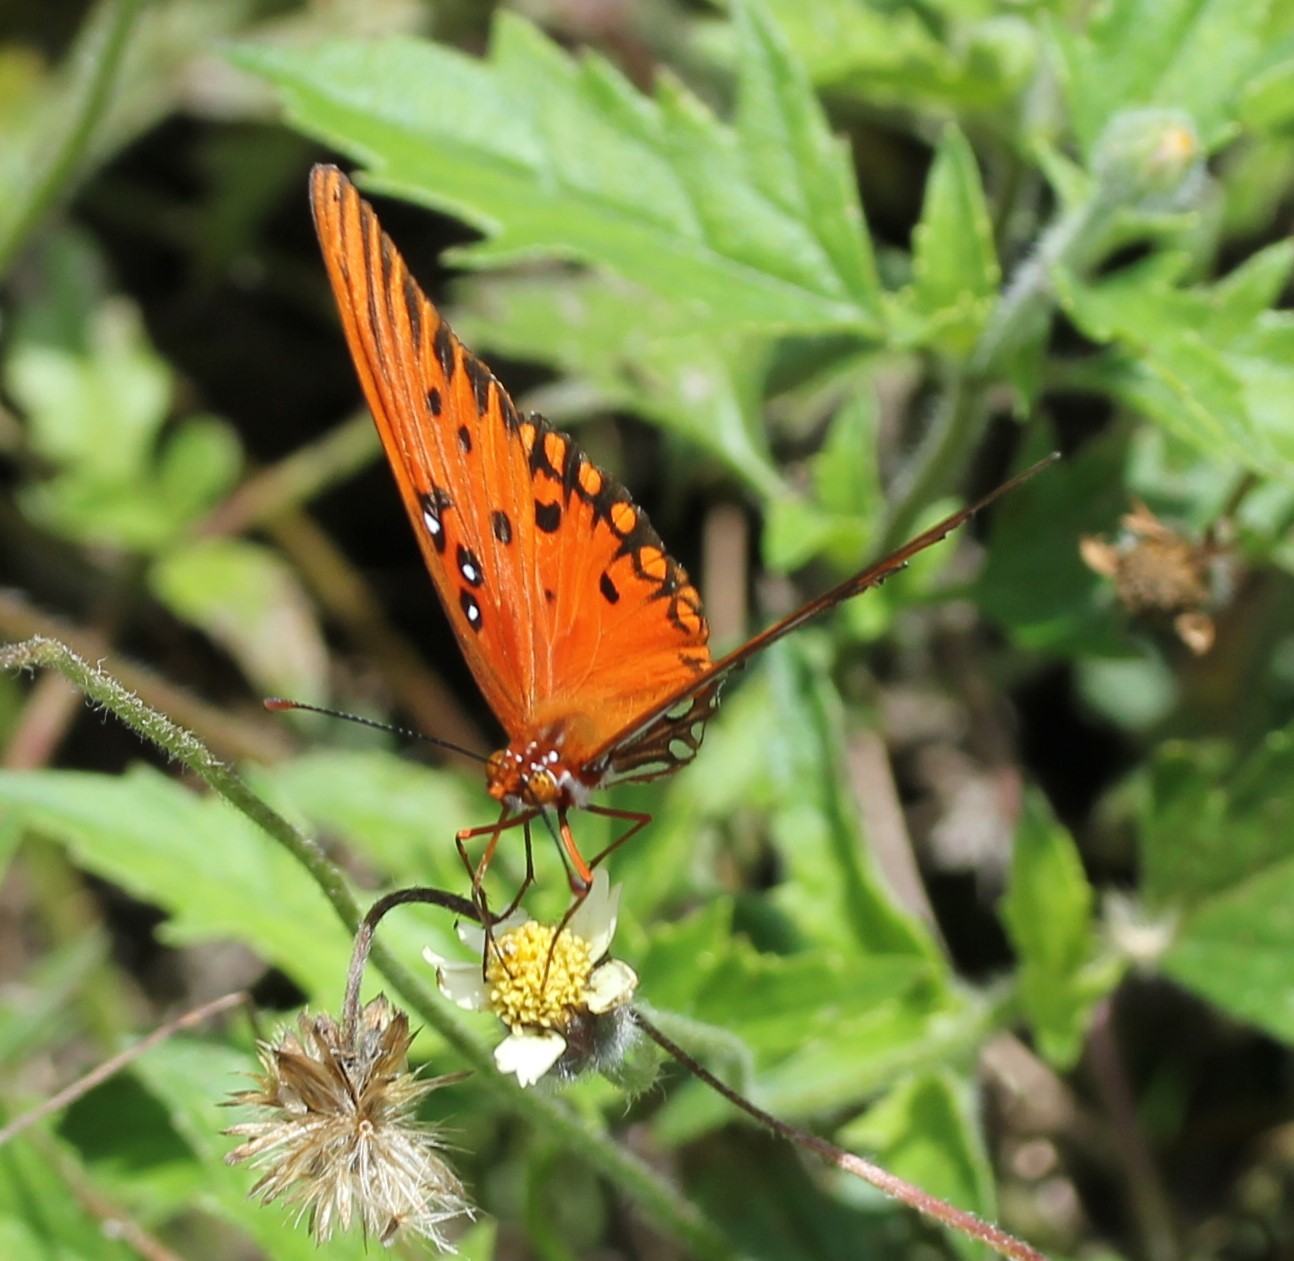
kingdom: Animalia
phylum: Arthropoda
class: Insecta
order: Lepidoptera
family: Nymphalidae
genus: Dione
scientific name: Dione vanillae
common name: Gulf fritillary
